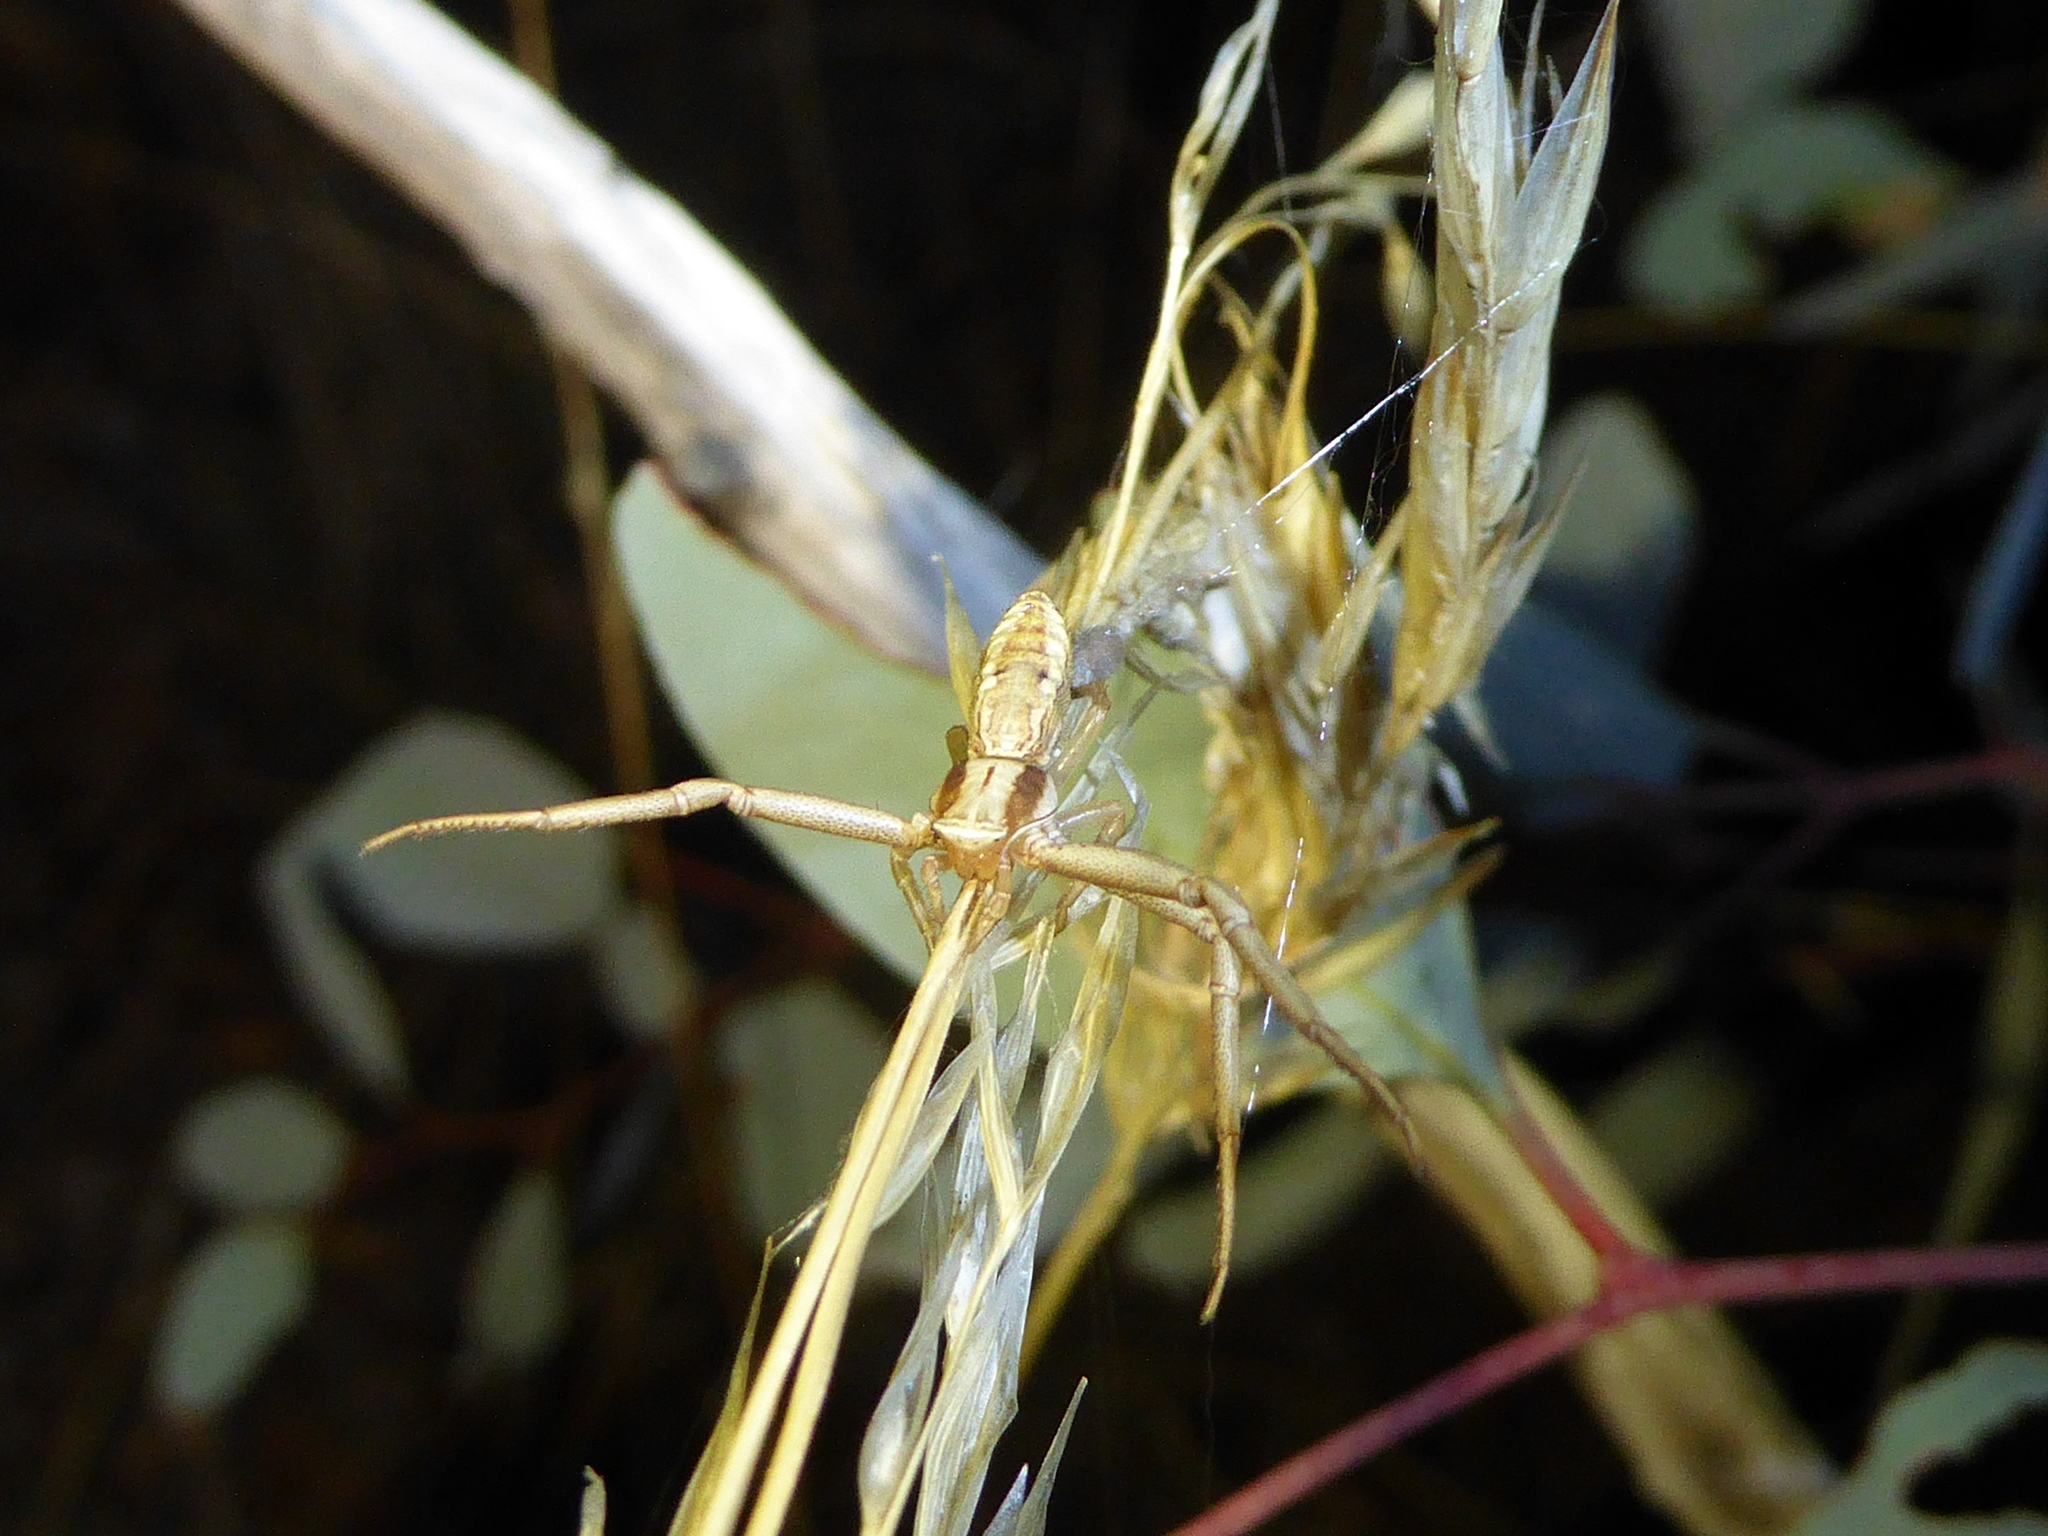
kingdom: Animalia
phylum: Arthropoda
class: Arachnida
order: Araneae
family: Thomisidae
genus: Runcinia
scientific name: Runcinia acuminata
